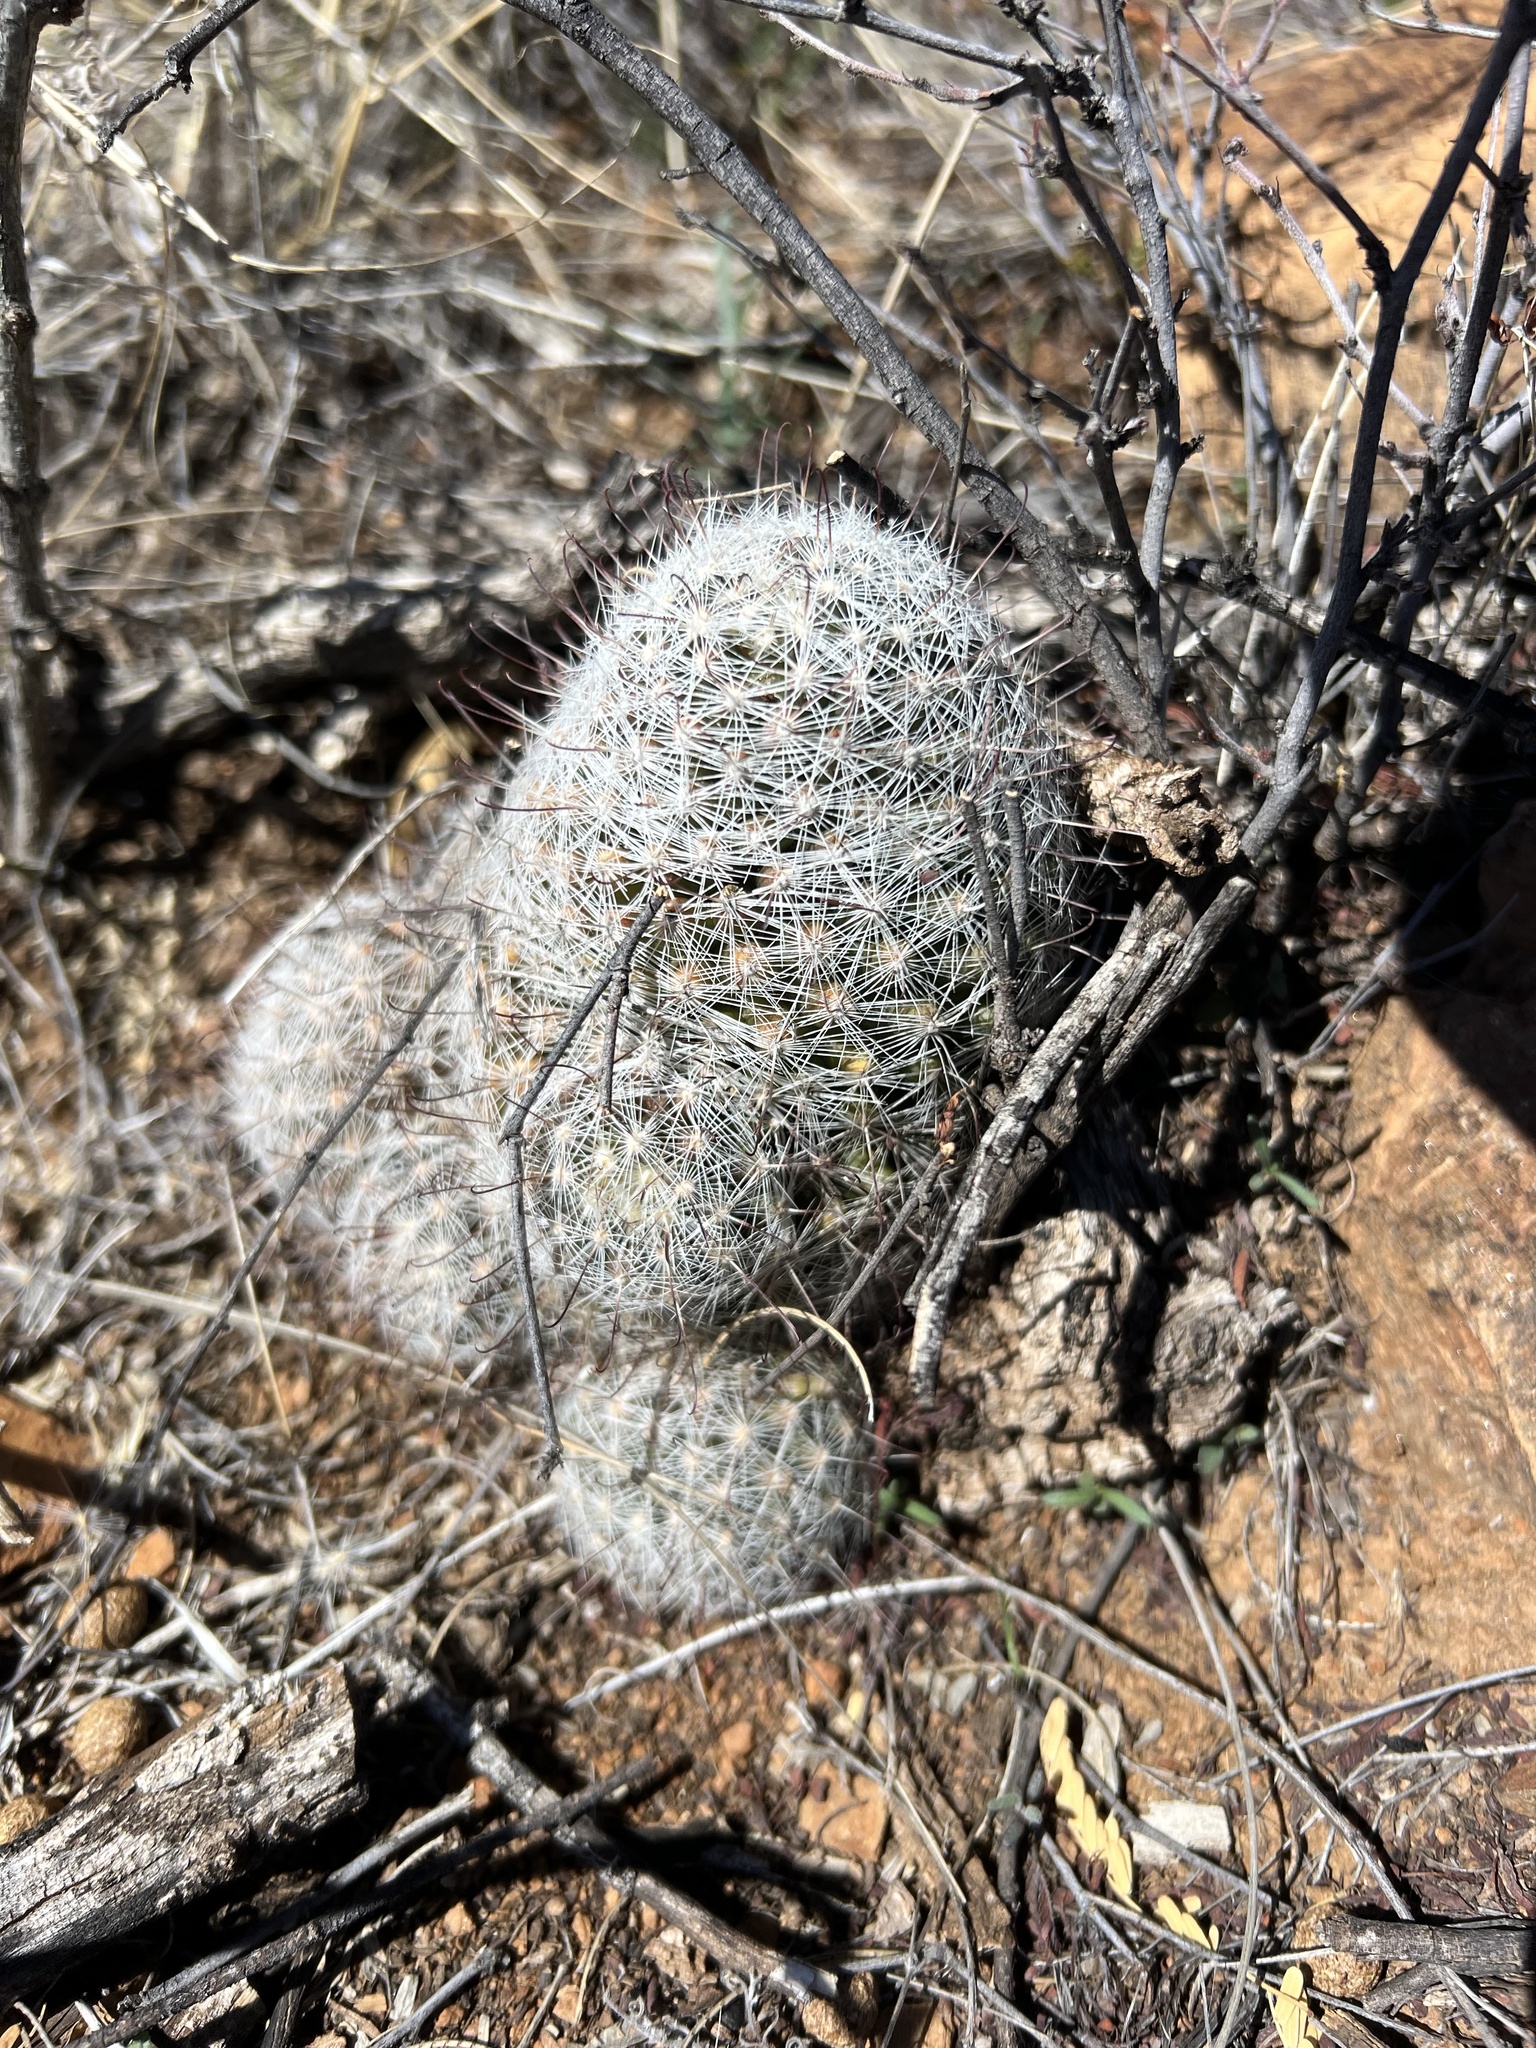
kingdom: Plantae
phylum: Tracheophyta
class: Magnoliopsida
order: Caryophyllales
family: Cactaceae
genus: Cochemiea
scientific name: Cochemiea grahamii
